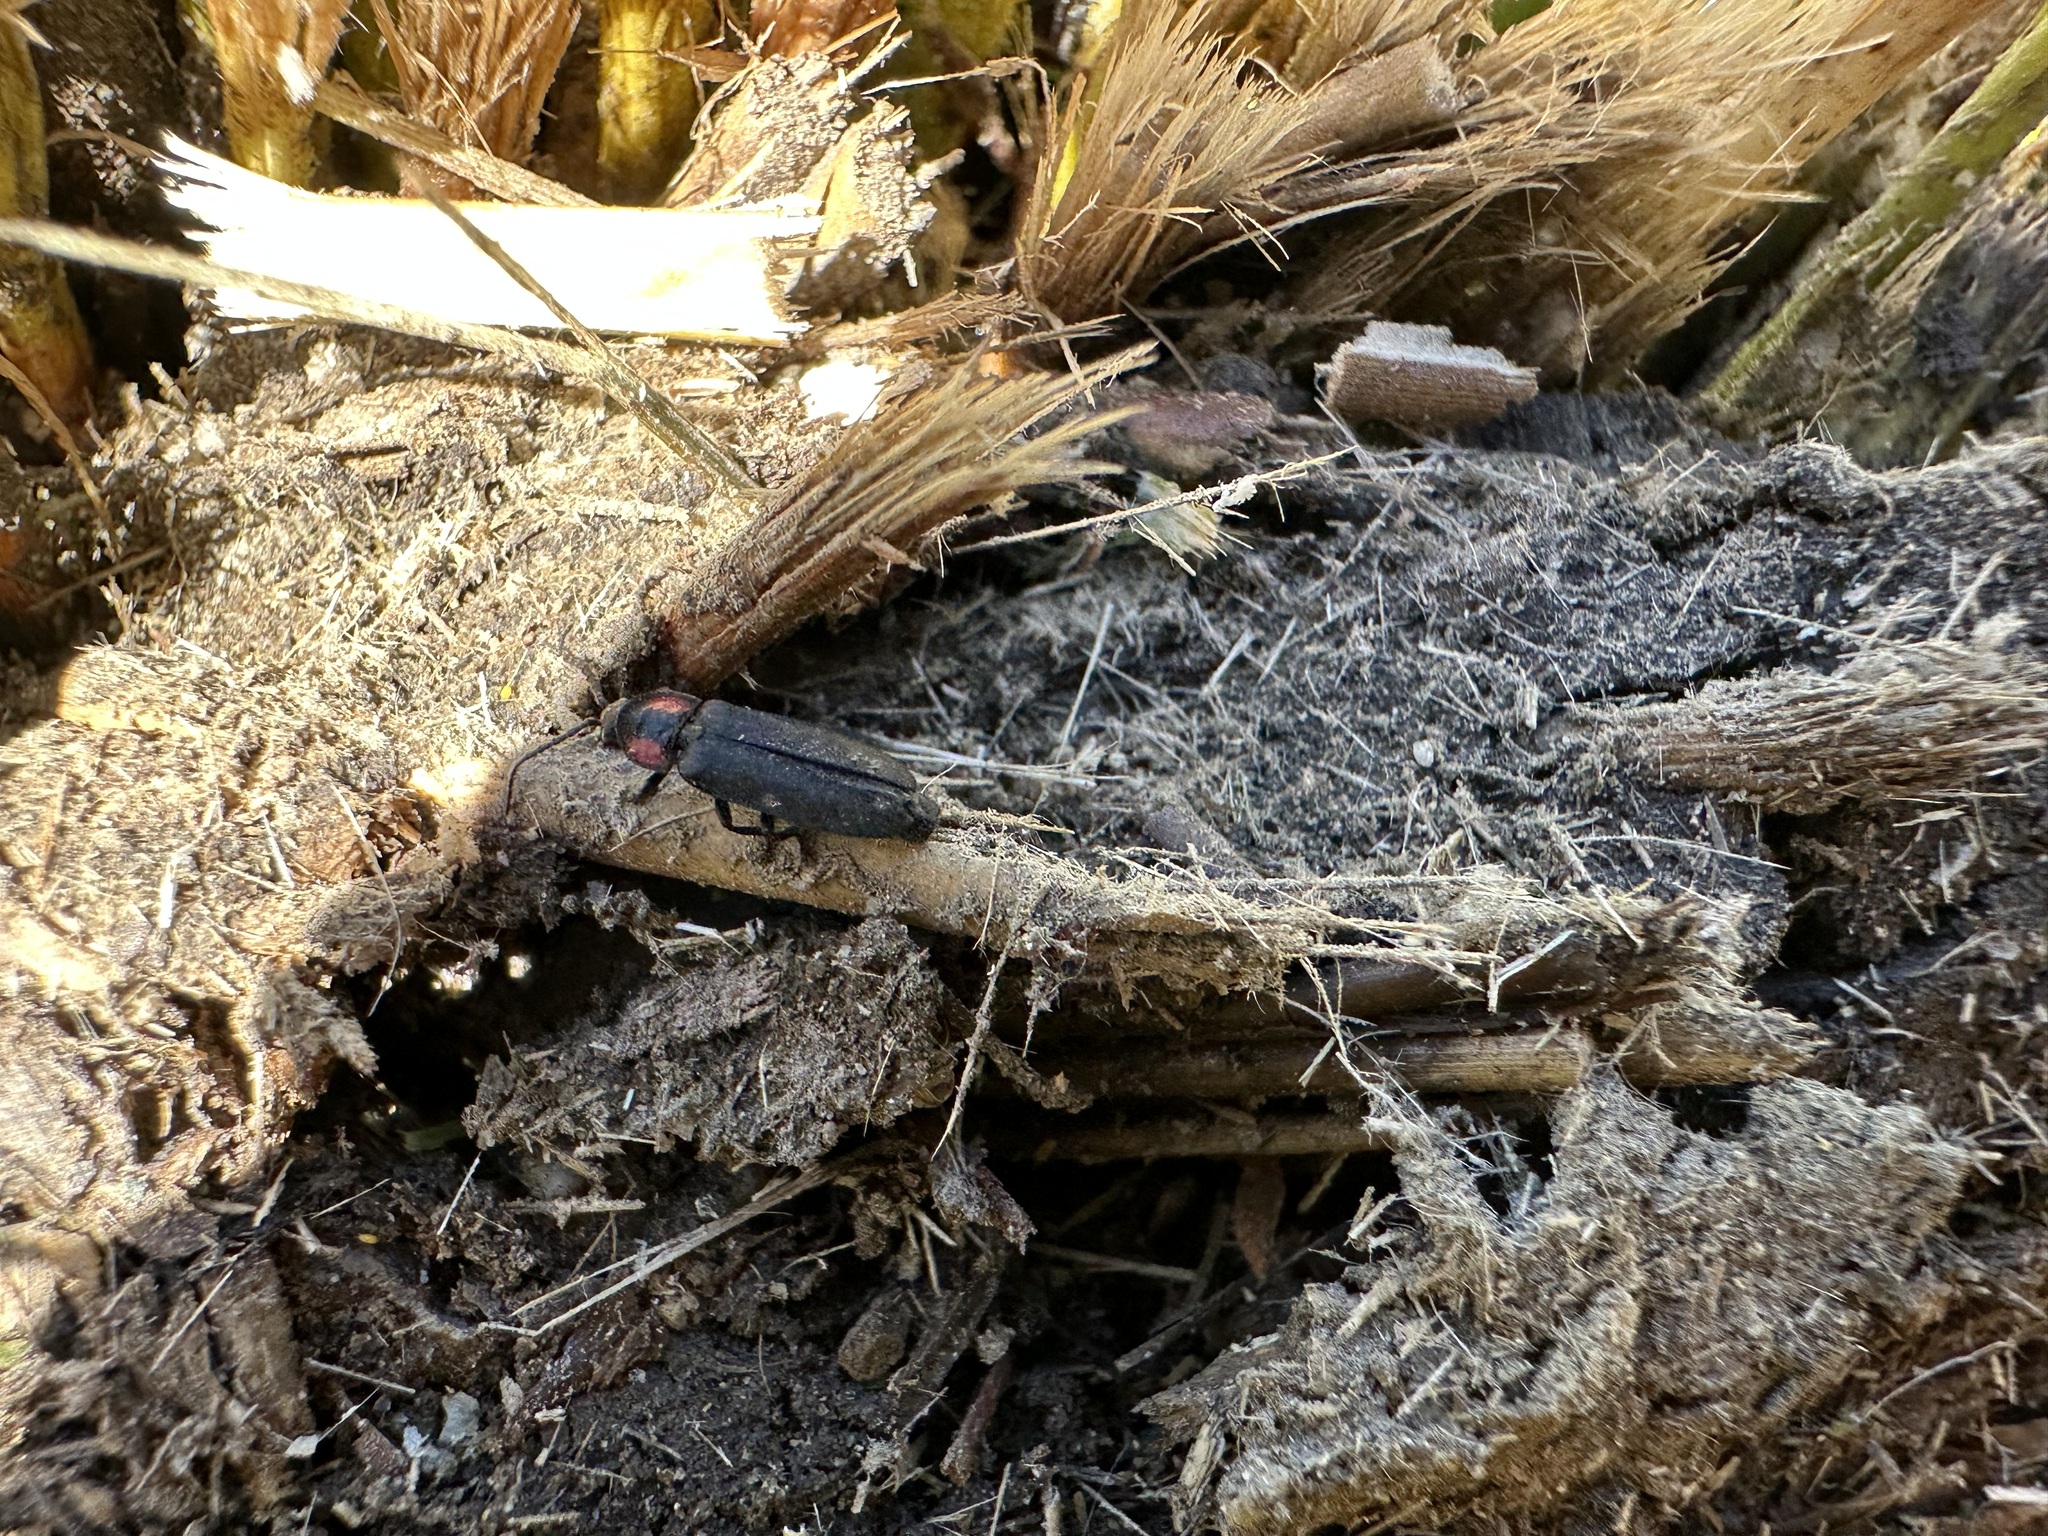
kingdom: Animalia
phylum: Arthropoda
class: Insecta
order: Coleoptera
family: Lampyridae
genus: Pyropyga
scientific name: Pyropyga nigricans
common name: Dark firefly
